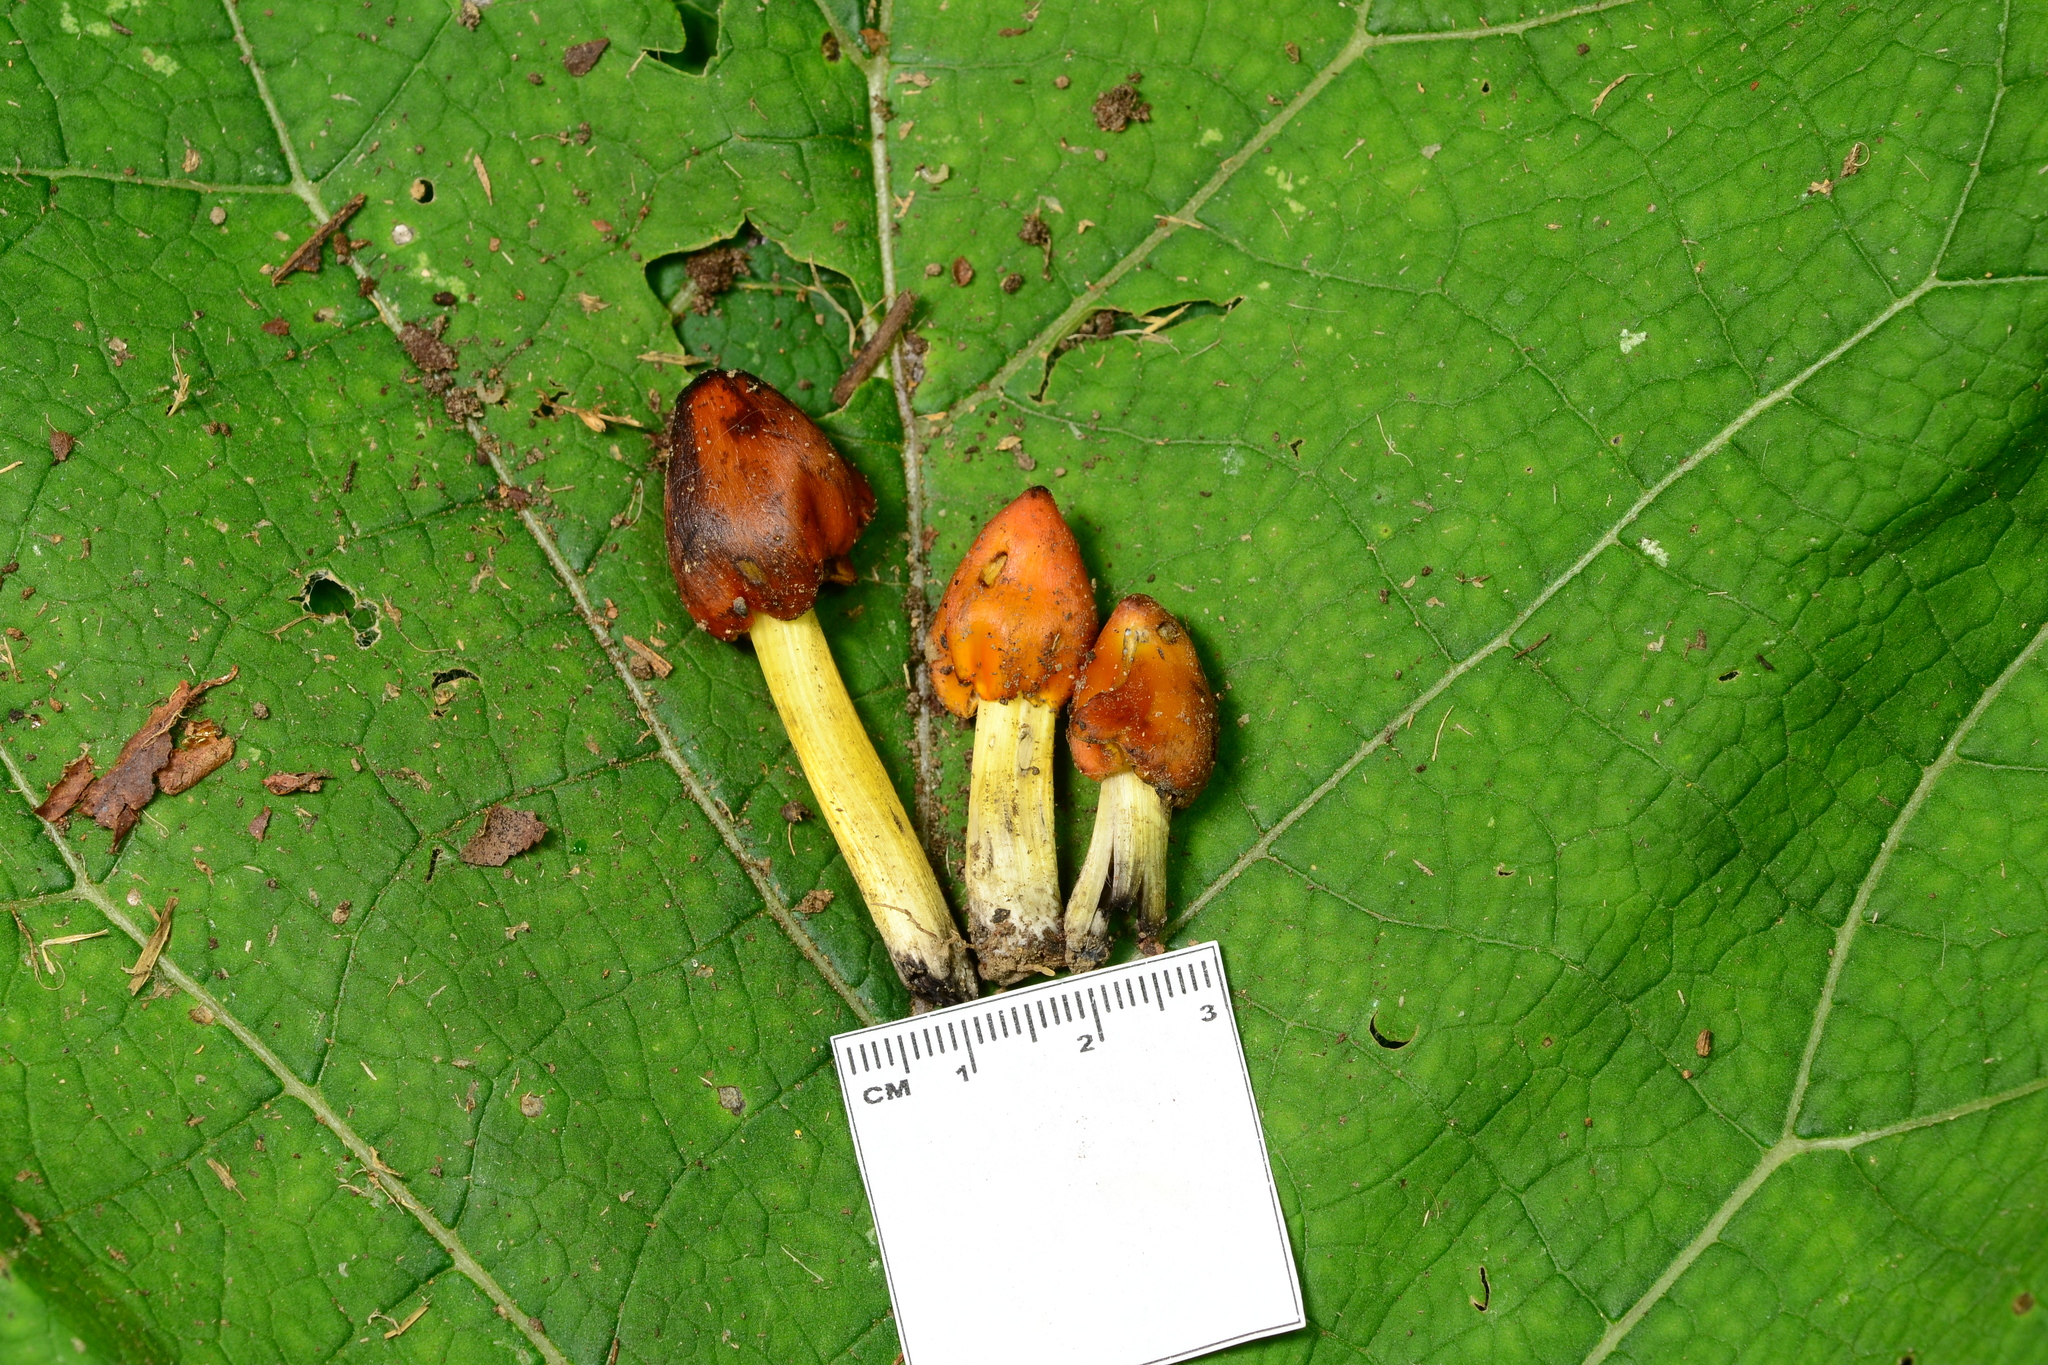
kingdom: Fungi
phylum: Basidiomycota
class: Agaricomycetes
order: Agaricales
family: Hygrophoraceae
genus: Hygrocybe
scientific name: Hygrocybe conica
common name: Blackening wax-cap
